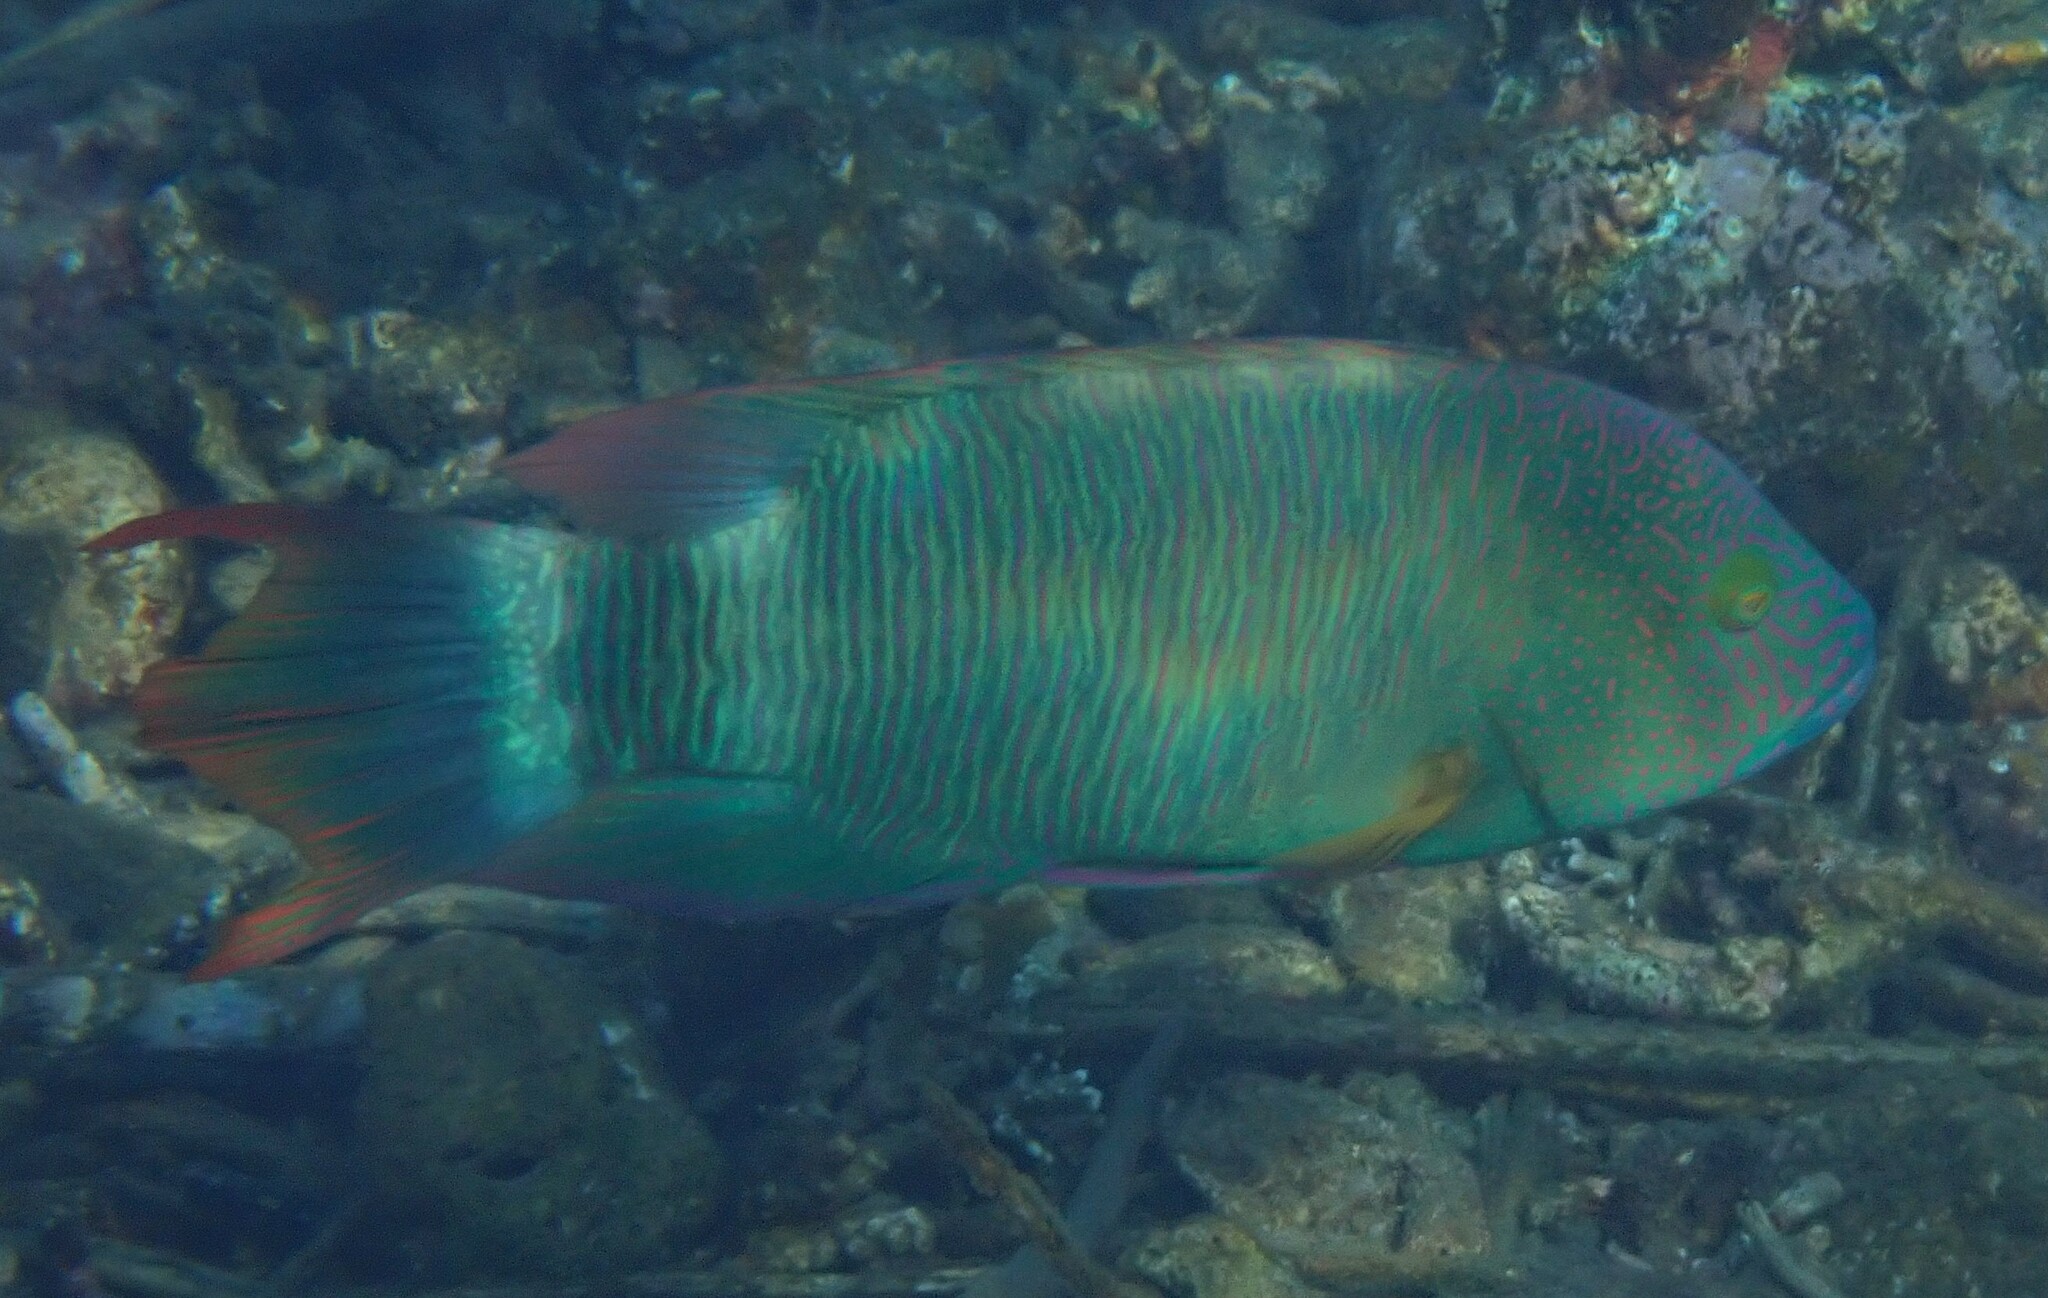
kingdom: Animalia
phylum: Chordata
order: Perciformes
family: Labridae
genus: Cheilinus
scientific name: Cheilinus trilobatus
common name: Tripletail maori wrasse
